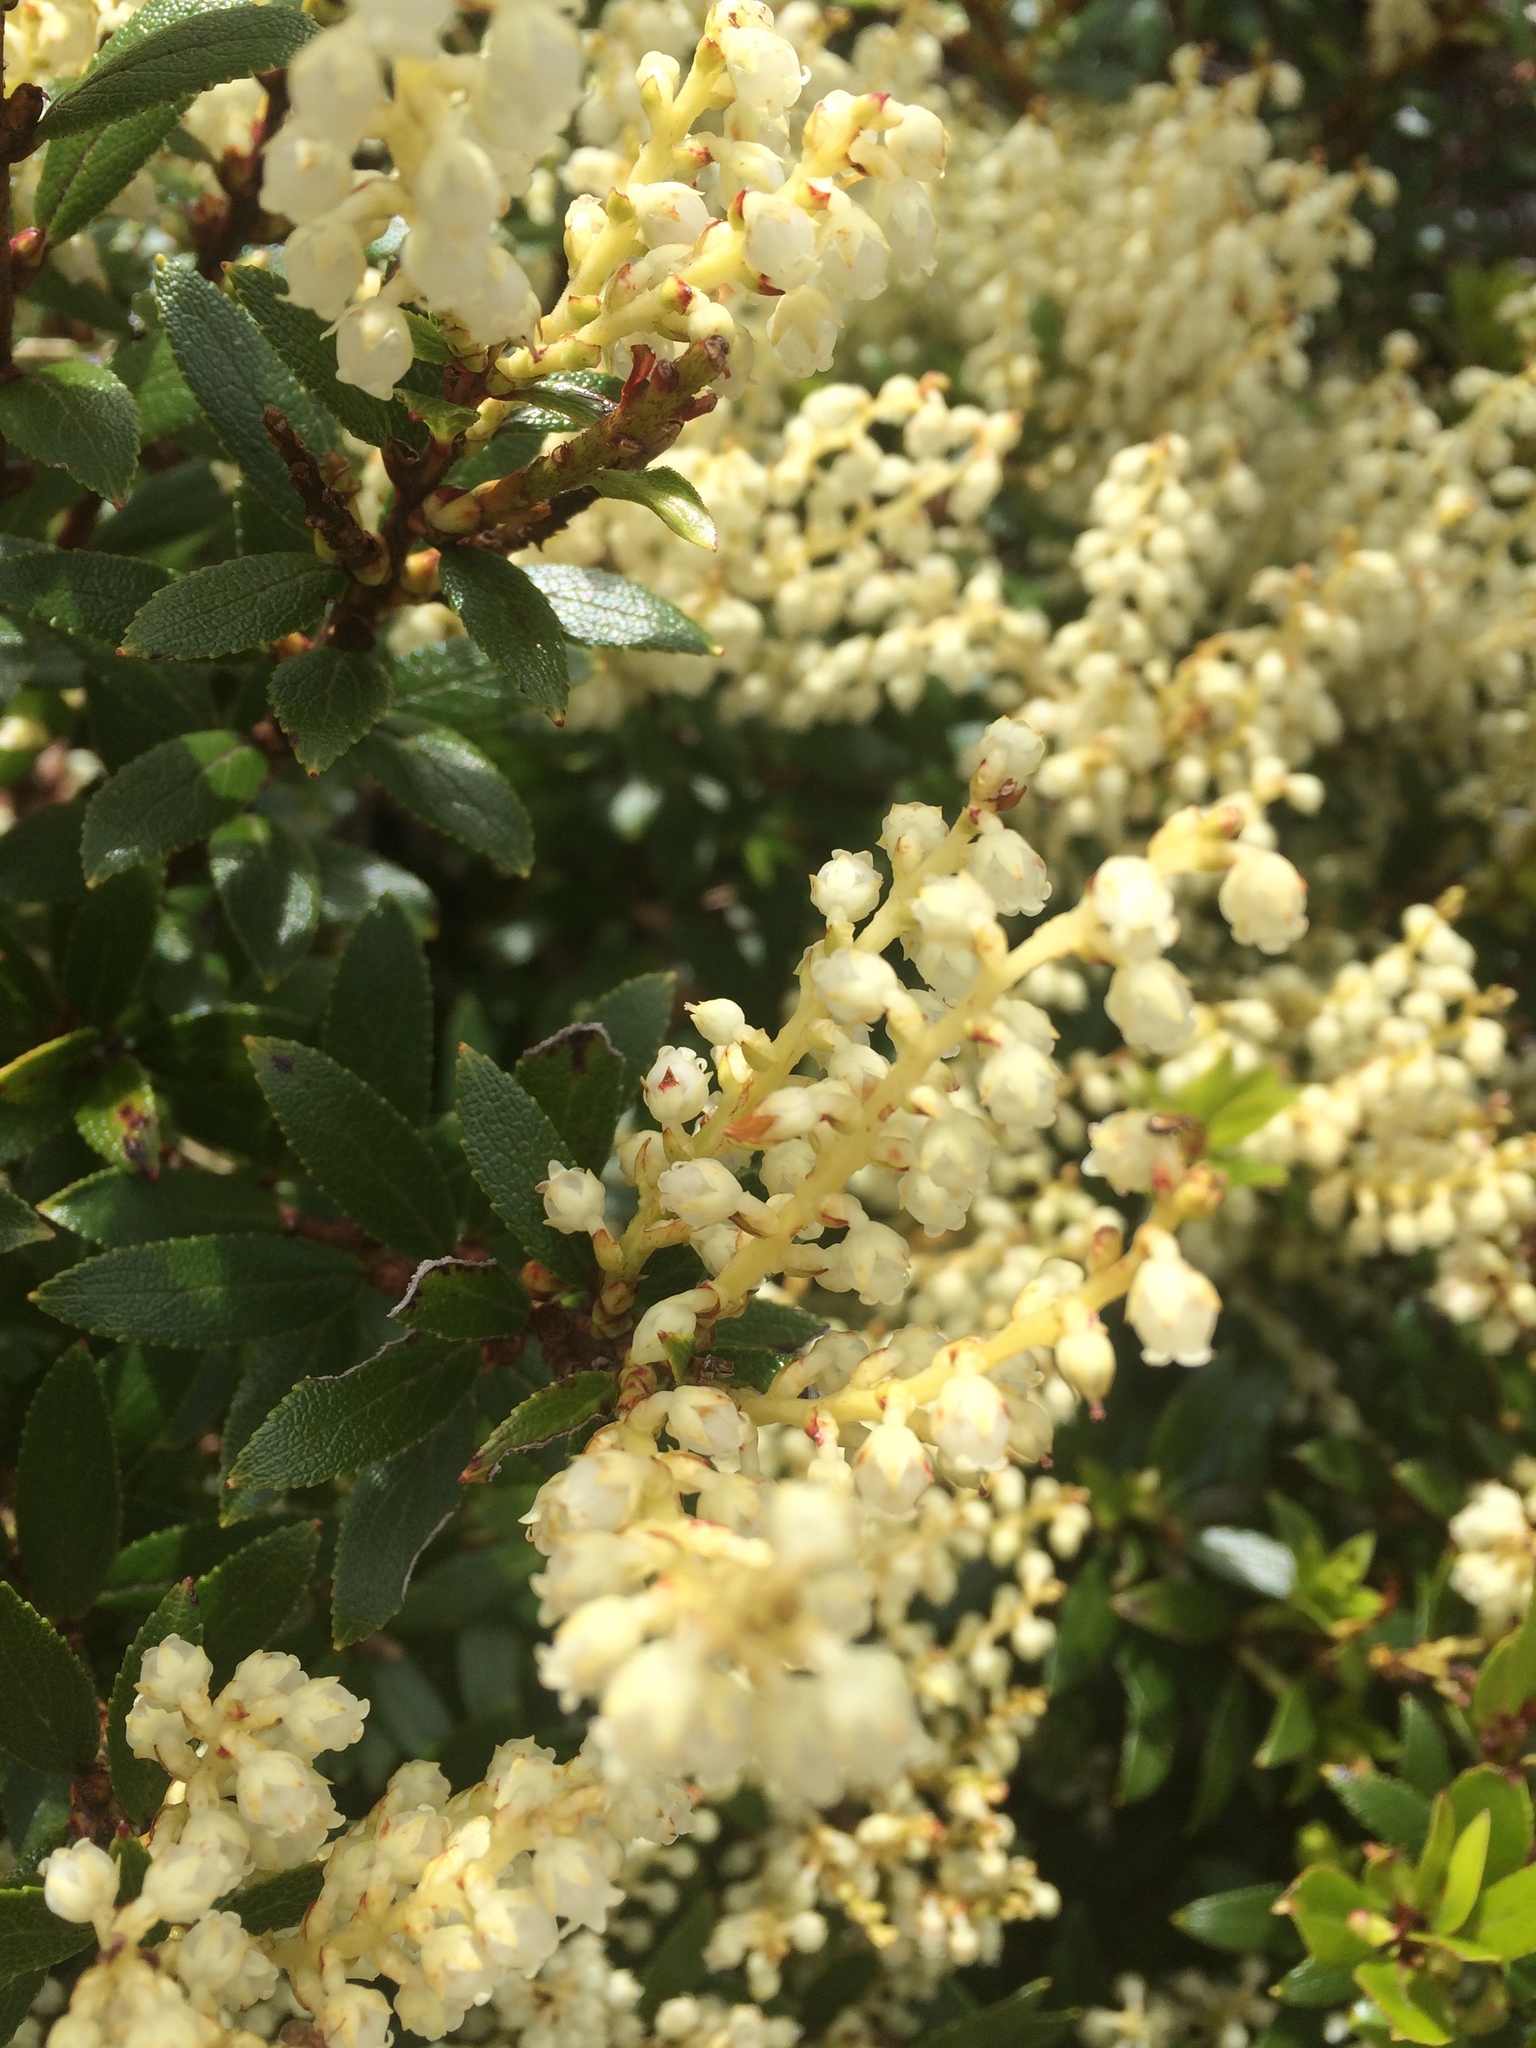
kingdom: Plantae
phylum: Tracheophyta
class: Magnoliopsida
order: Ericales
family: Ericaceae
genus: Gaultheria
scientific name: Gaultheria crassa
